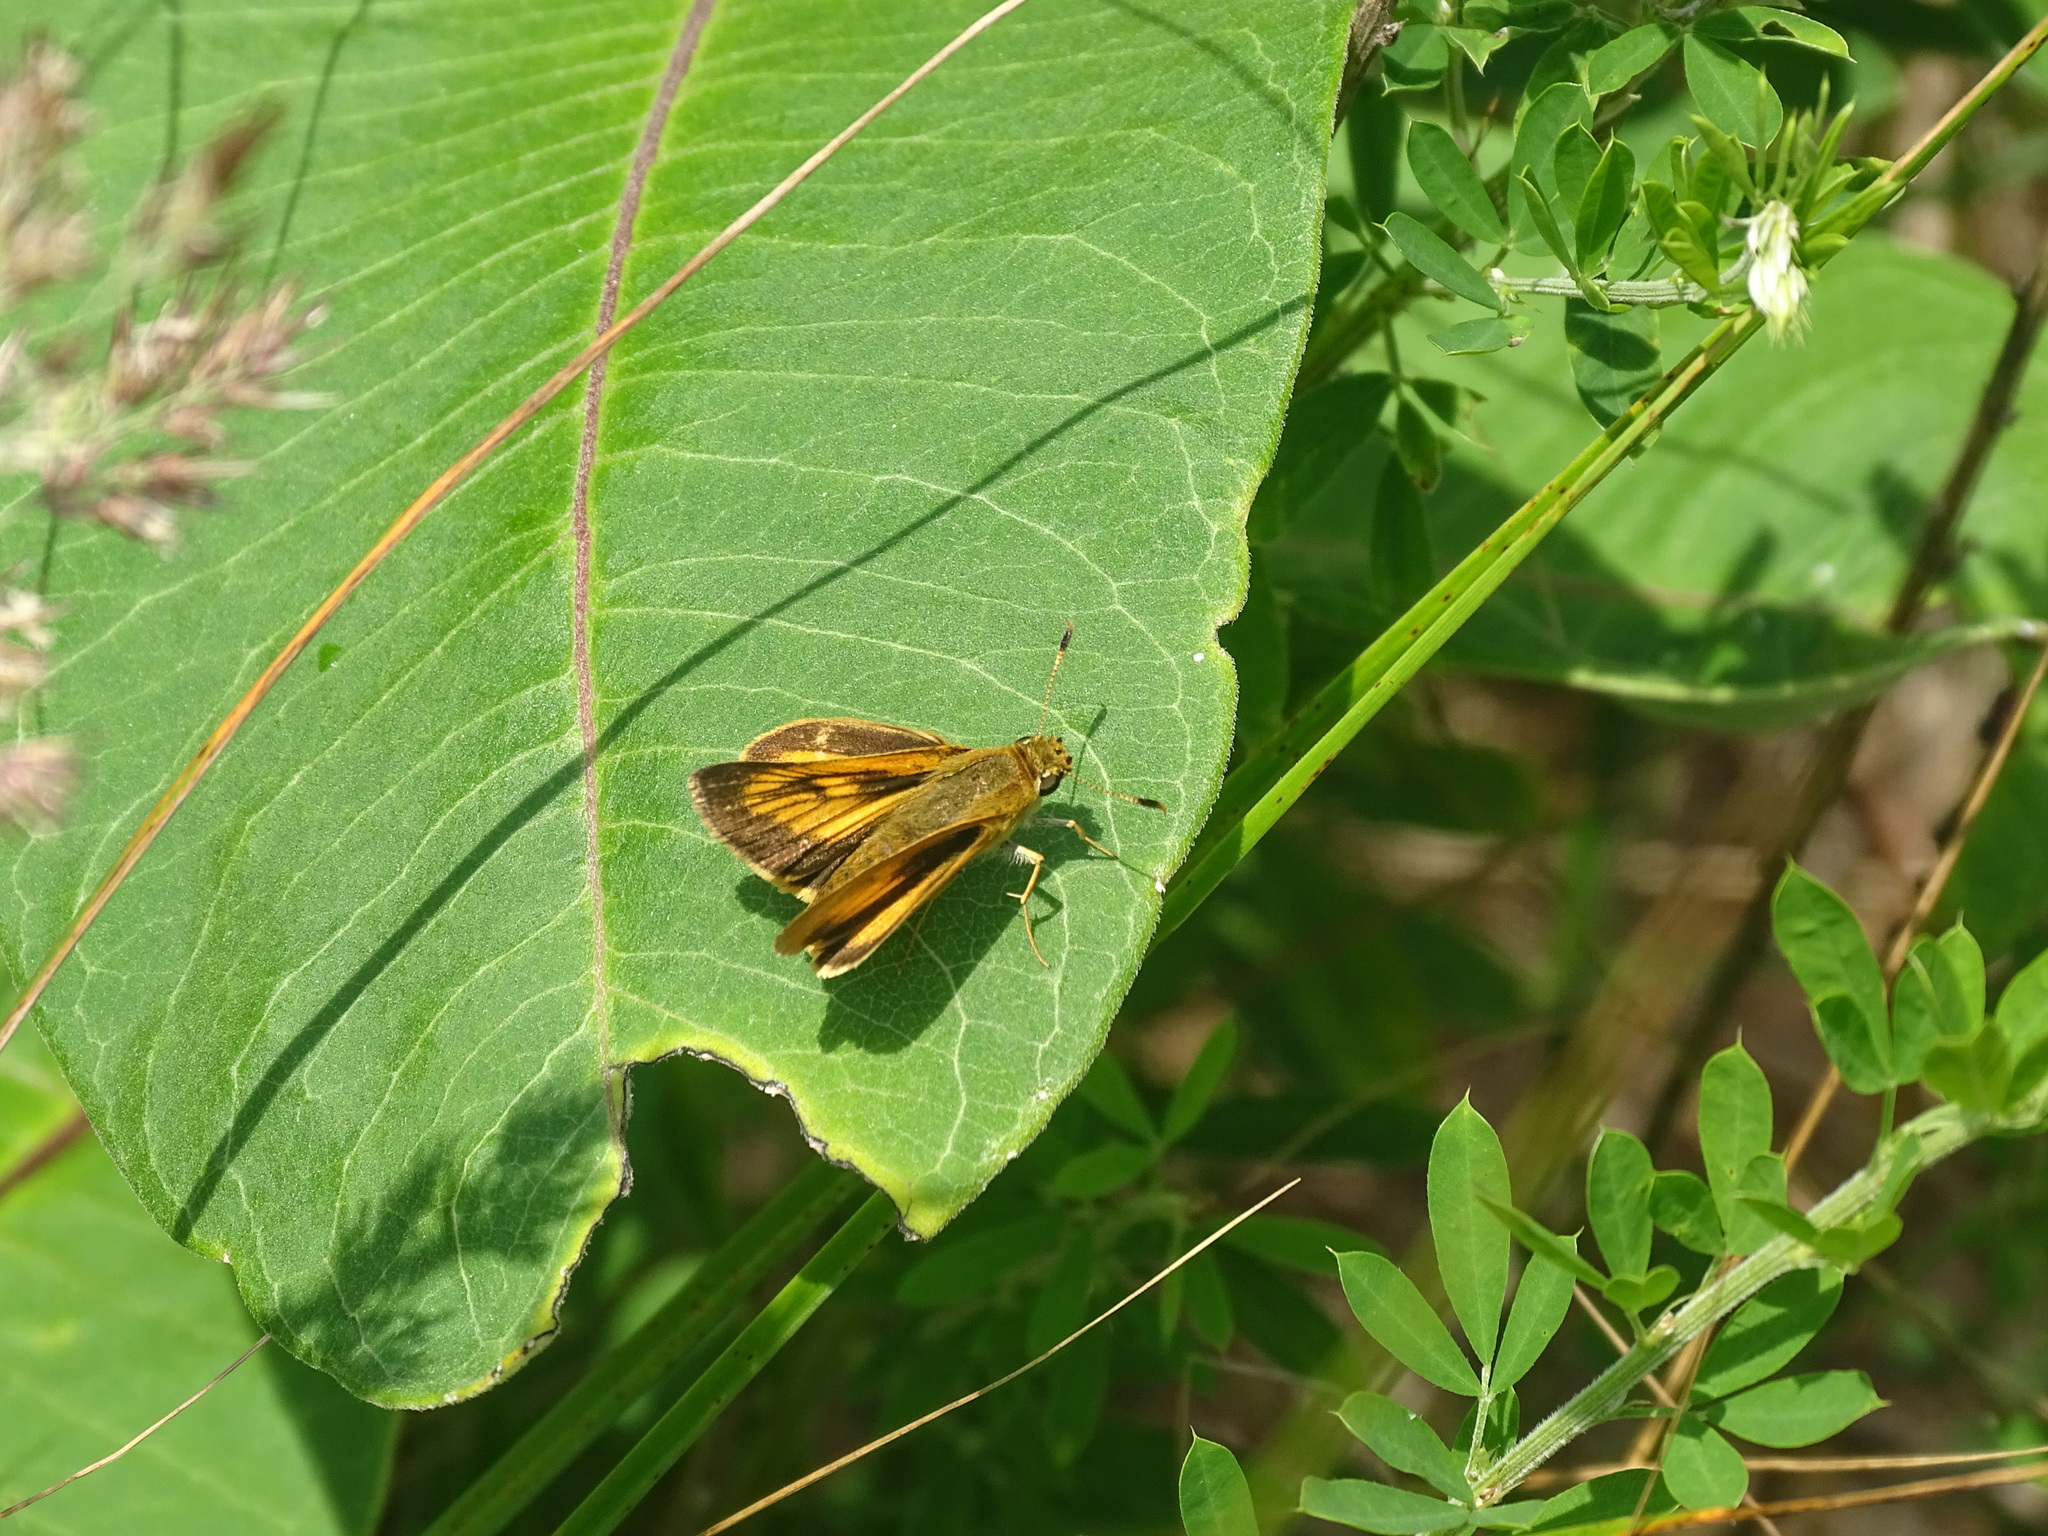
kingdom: Animalia
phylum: Arthropoda
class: Insecta
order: Lepidoptera
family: Hesperiidae
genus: Atrytone
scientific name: Atrytone delaware
